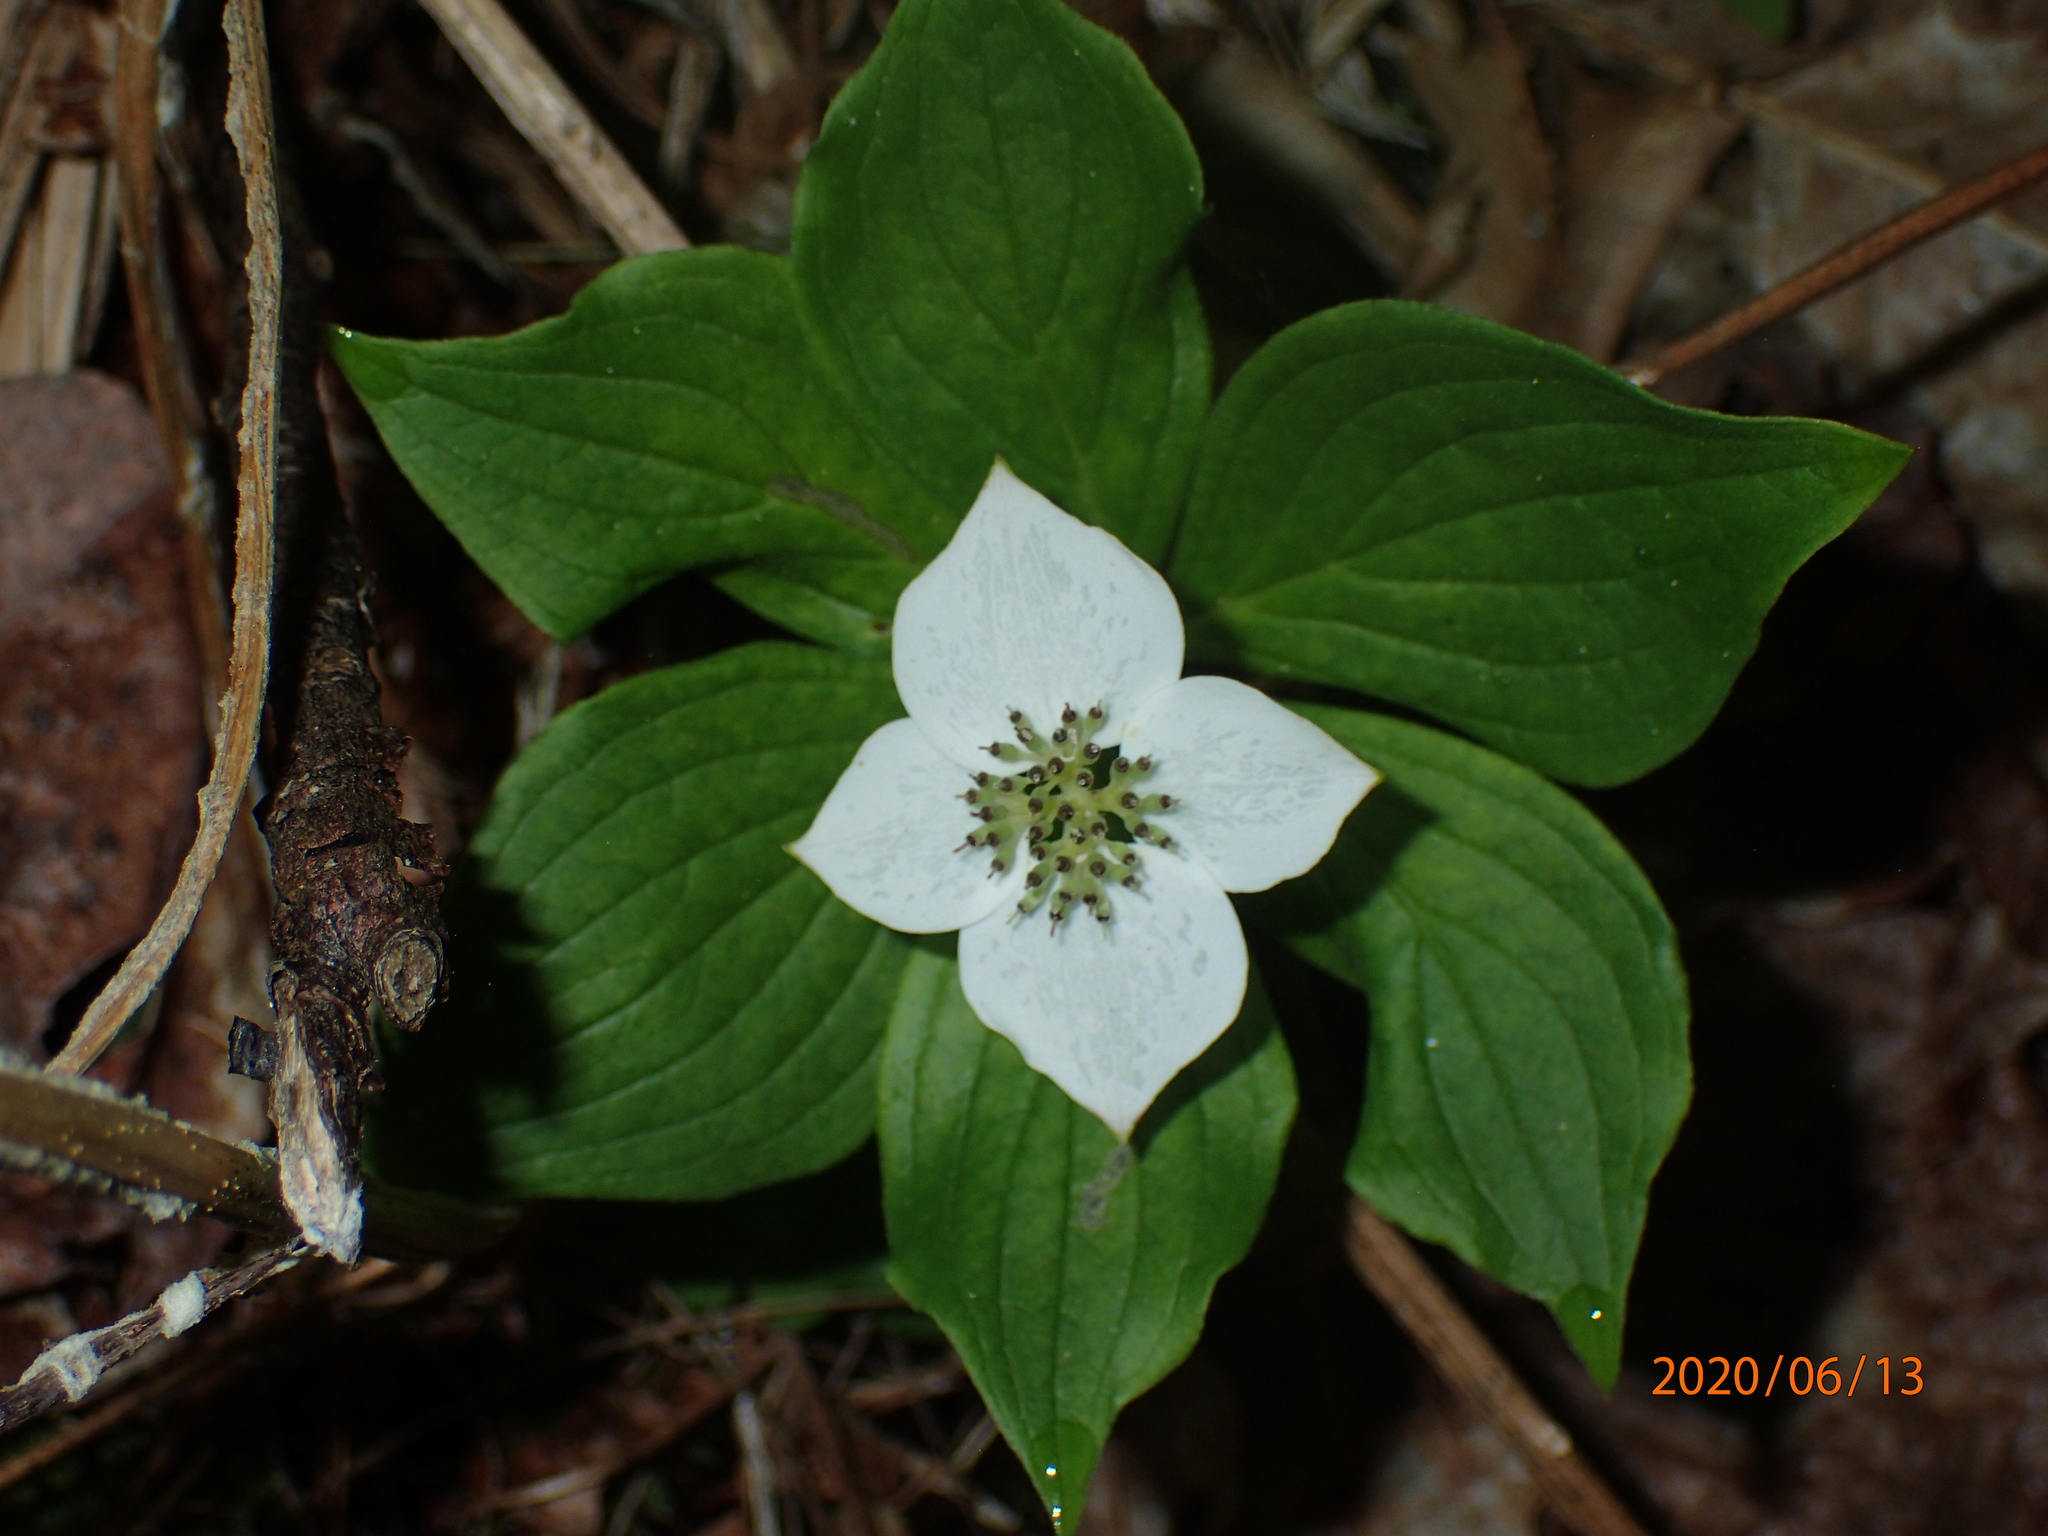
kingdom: Plantae
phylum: Tracheophyta
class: Magnoliopsida
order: Cornales
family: Cornaceae
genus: Cornus
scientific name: Cornus canadensis
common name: Creeping dogwood
